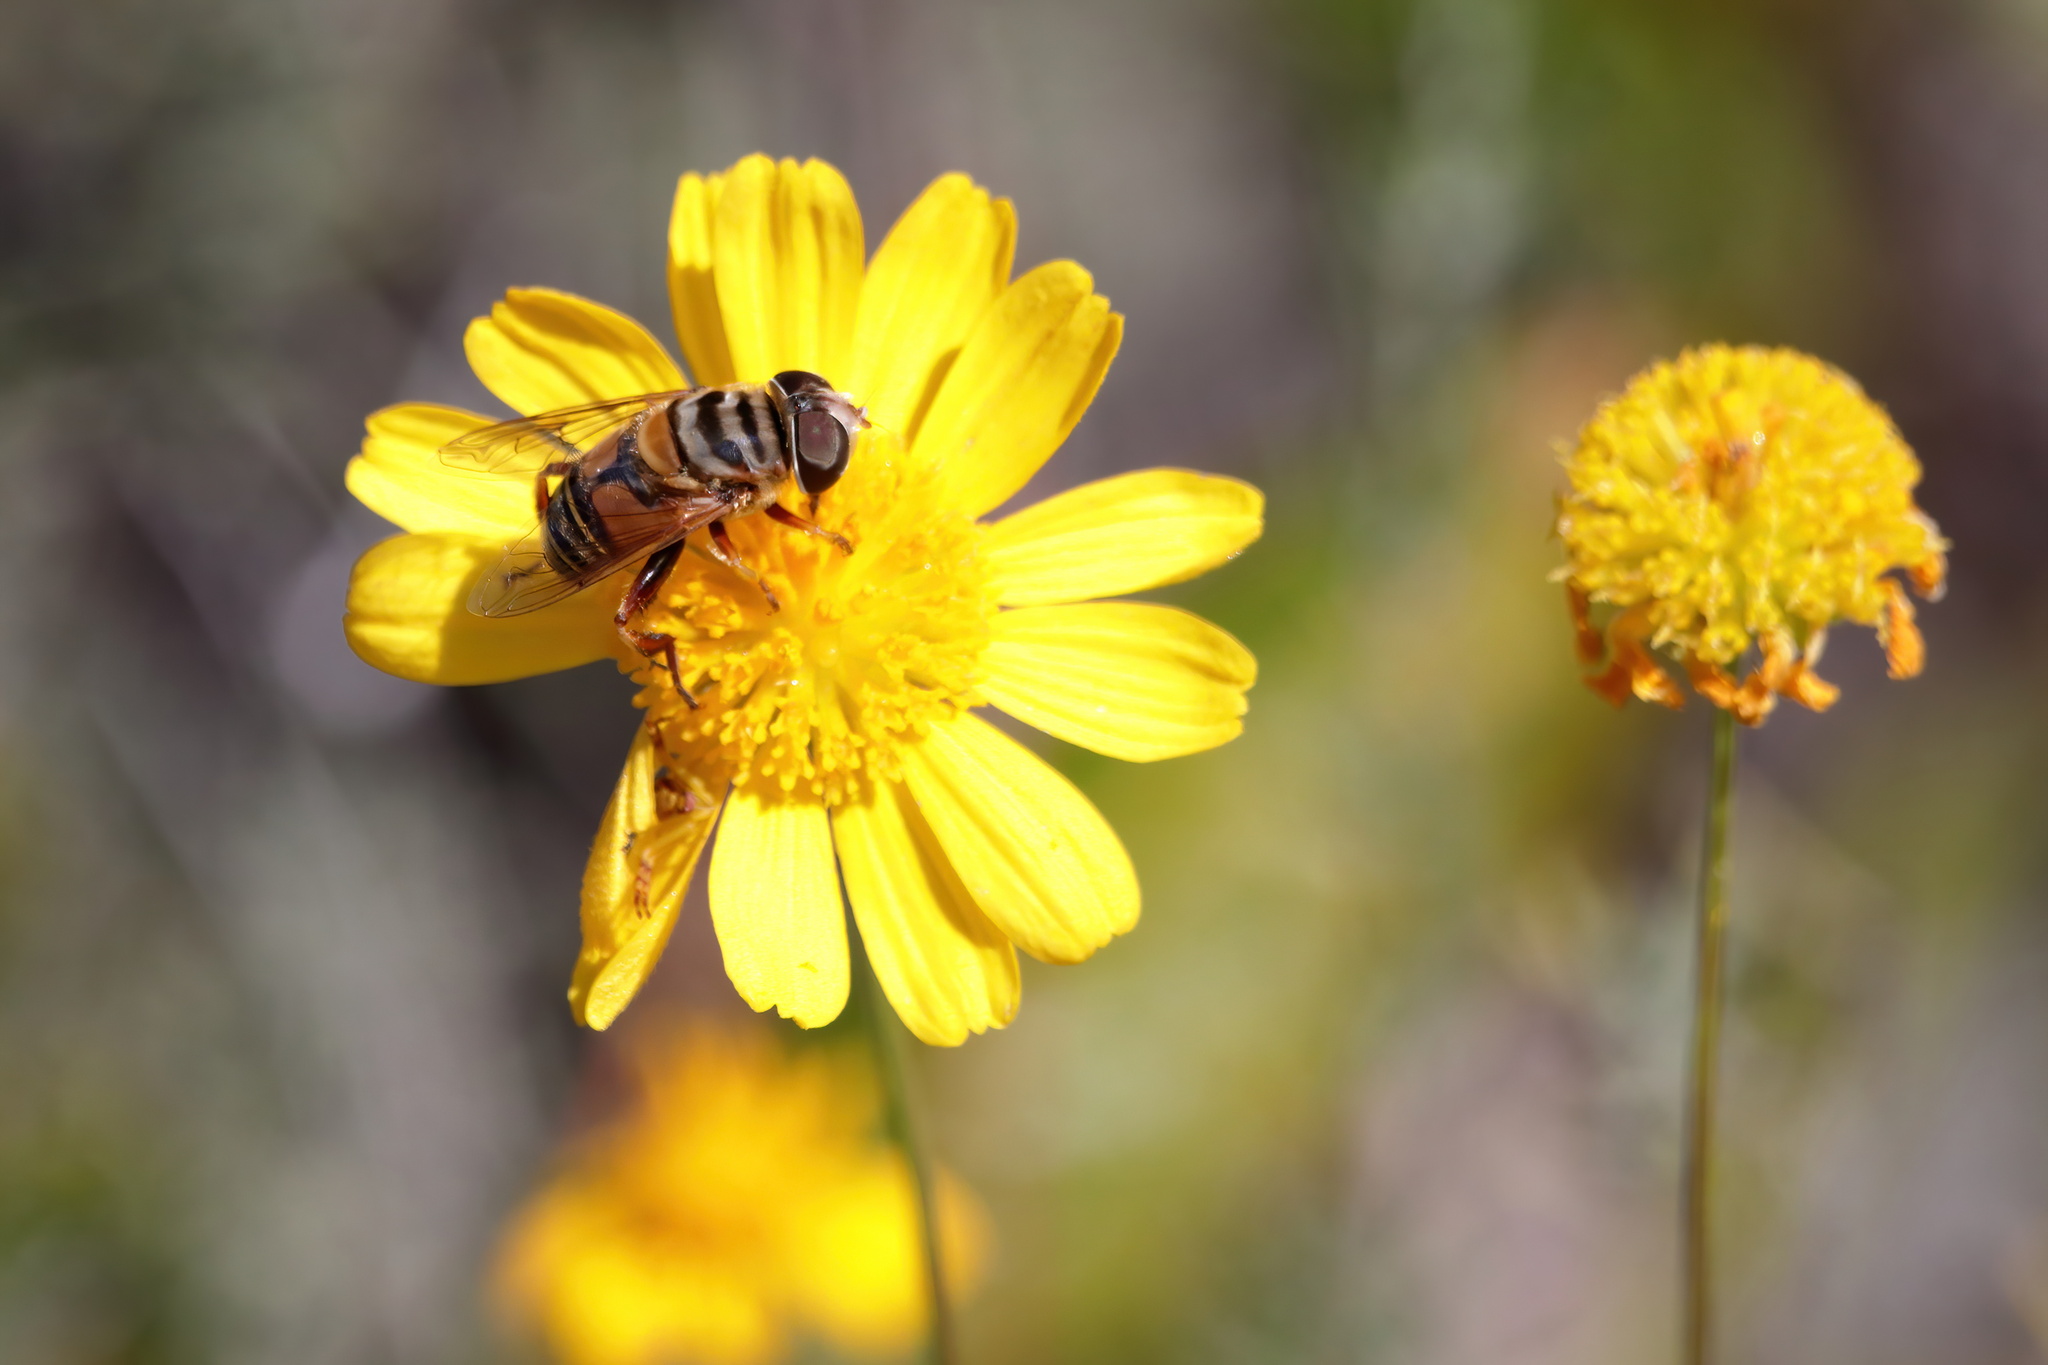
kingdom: Animalia
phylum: Arthropoda
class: Insecta
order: Diptera
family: Syrphidae
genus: Palpada
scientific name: Palpada vinetorum
